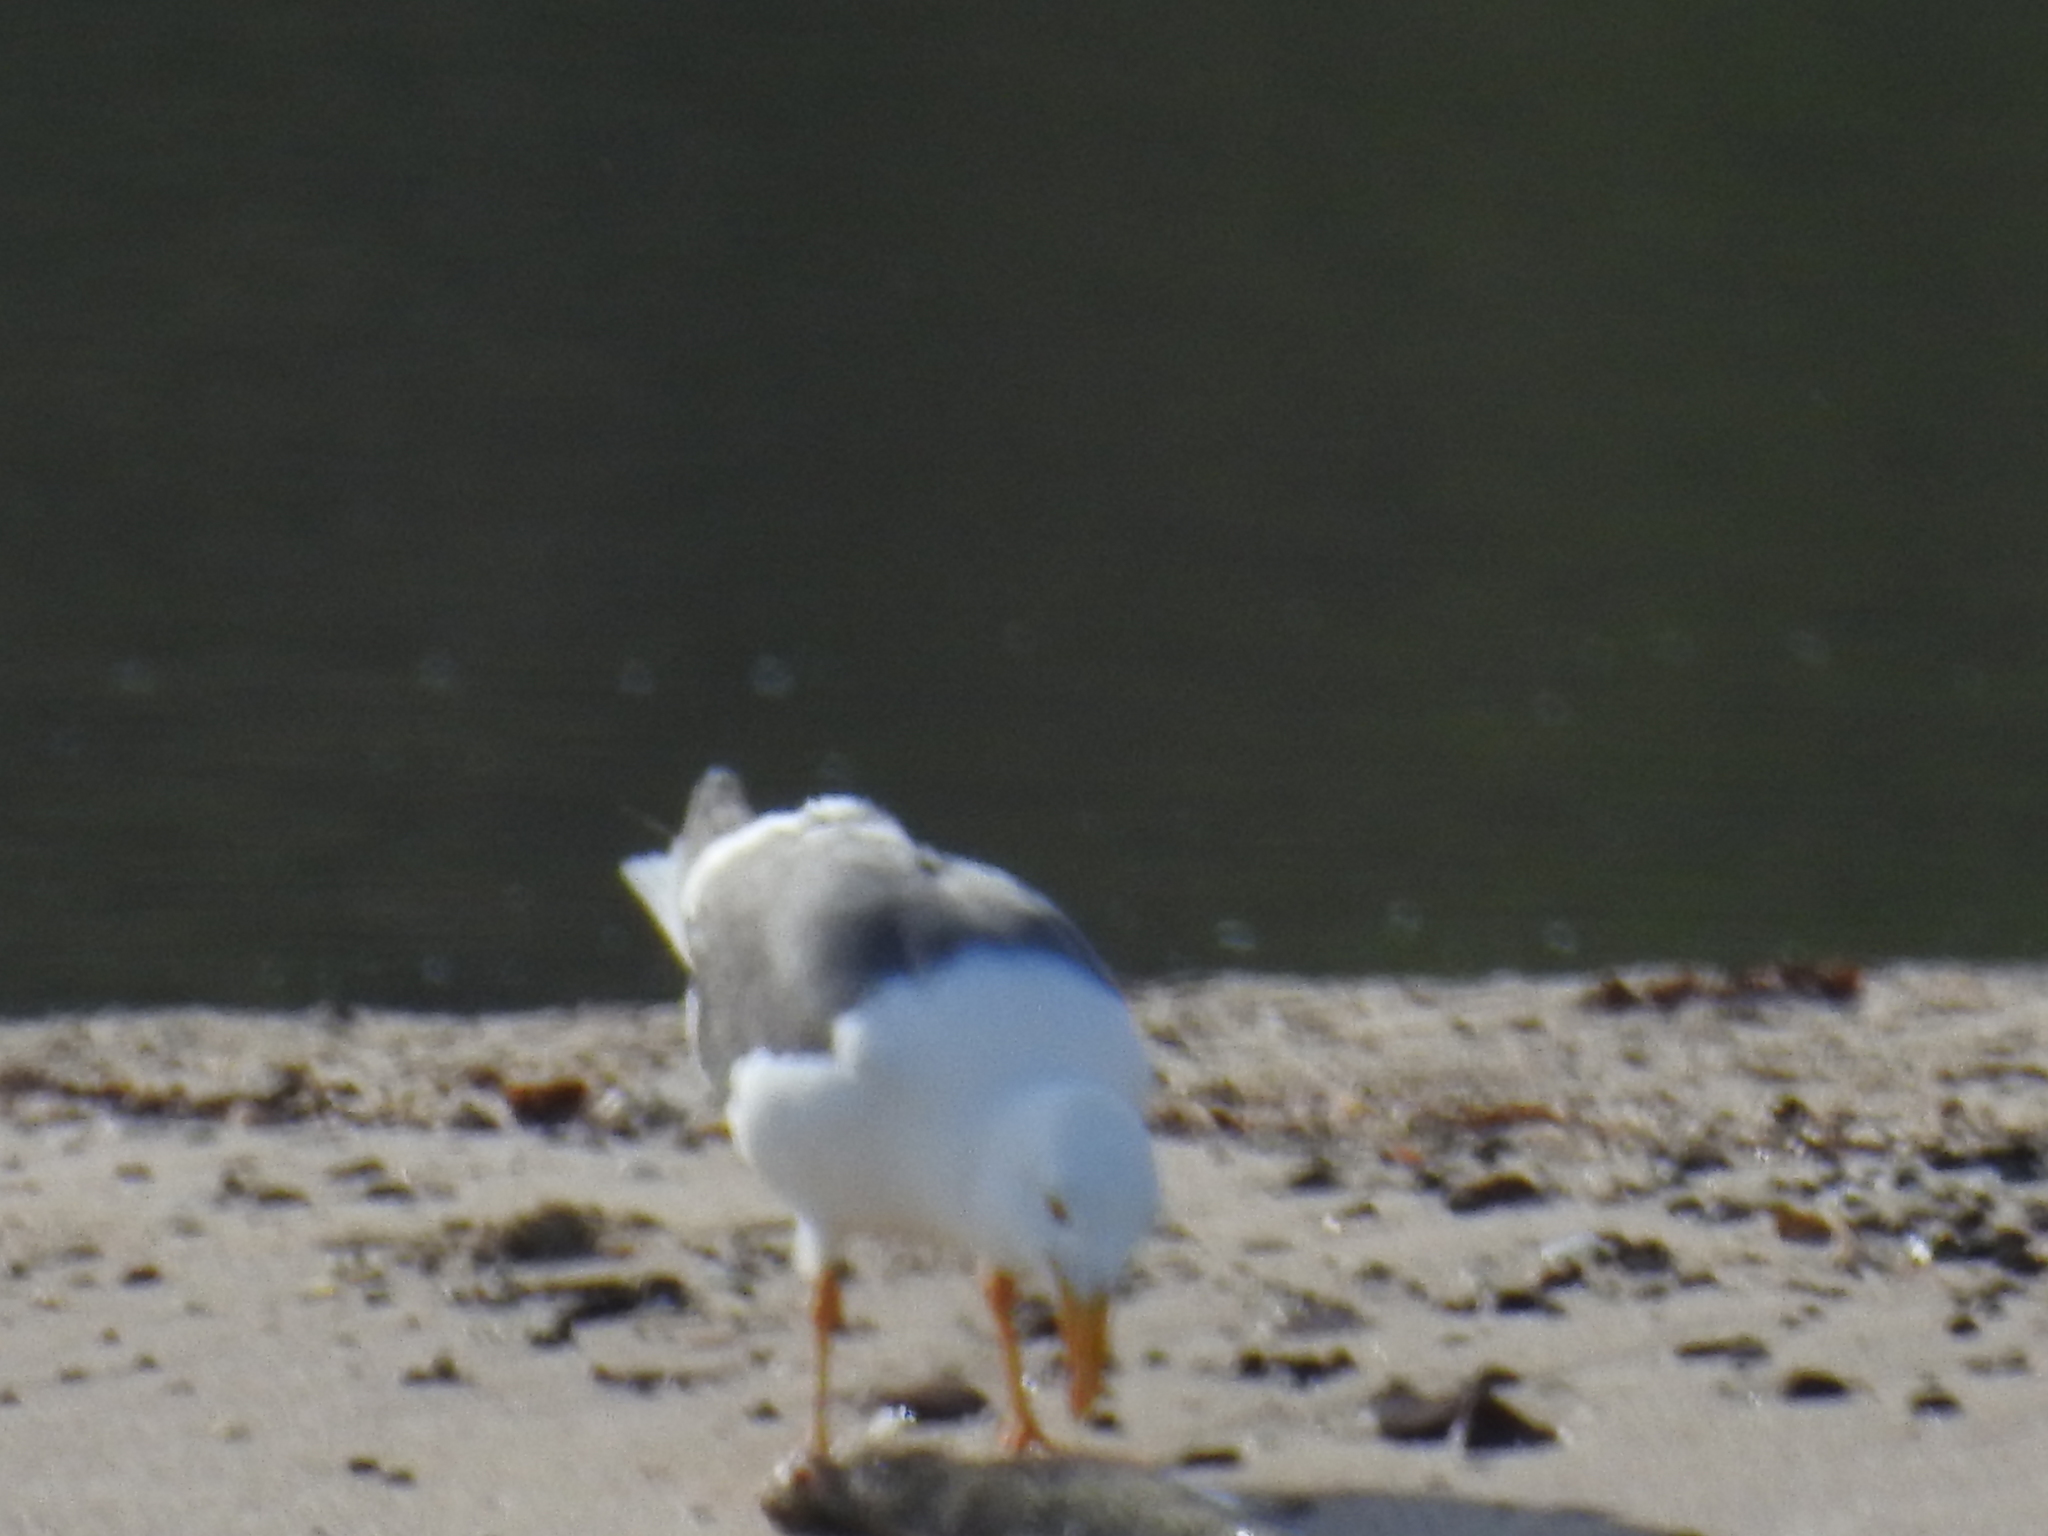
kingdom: Animalia
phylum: Chordata
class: Aves
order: Charadriiformes
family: Laridae
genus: Larus
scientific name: Larus livens
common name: Yellow-footed gull
